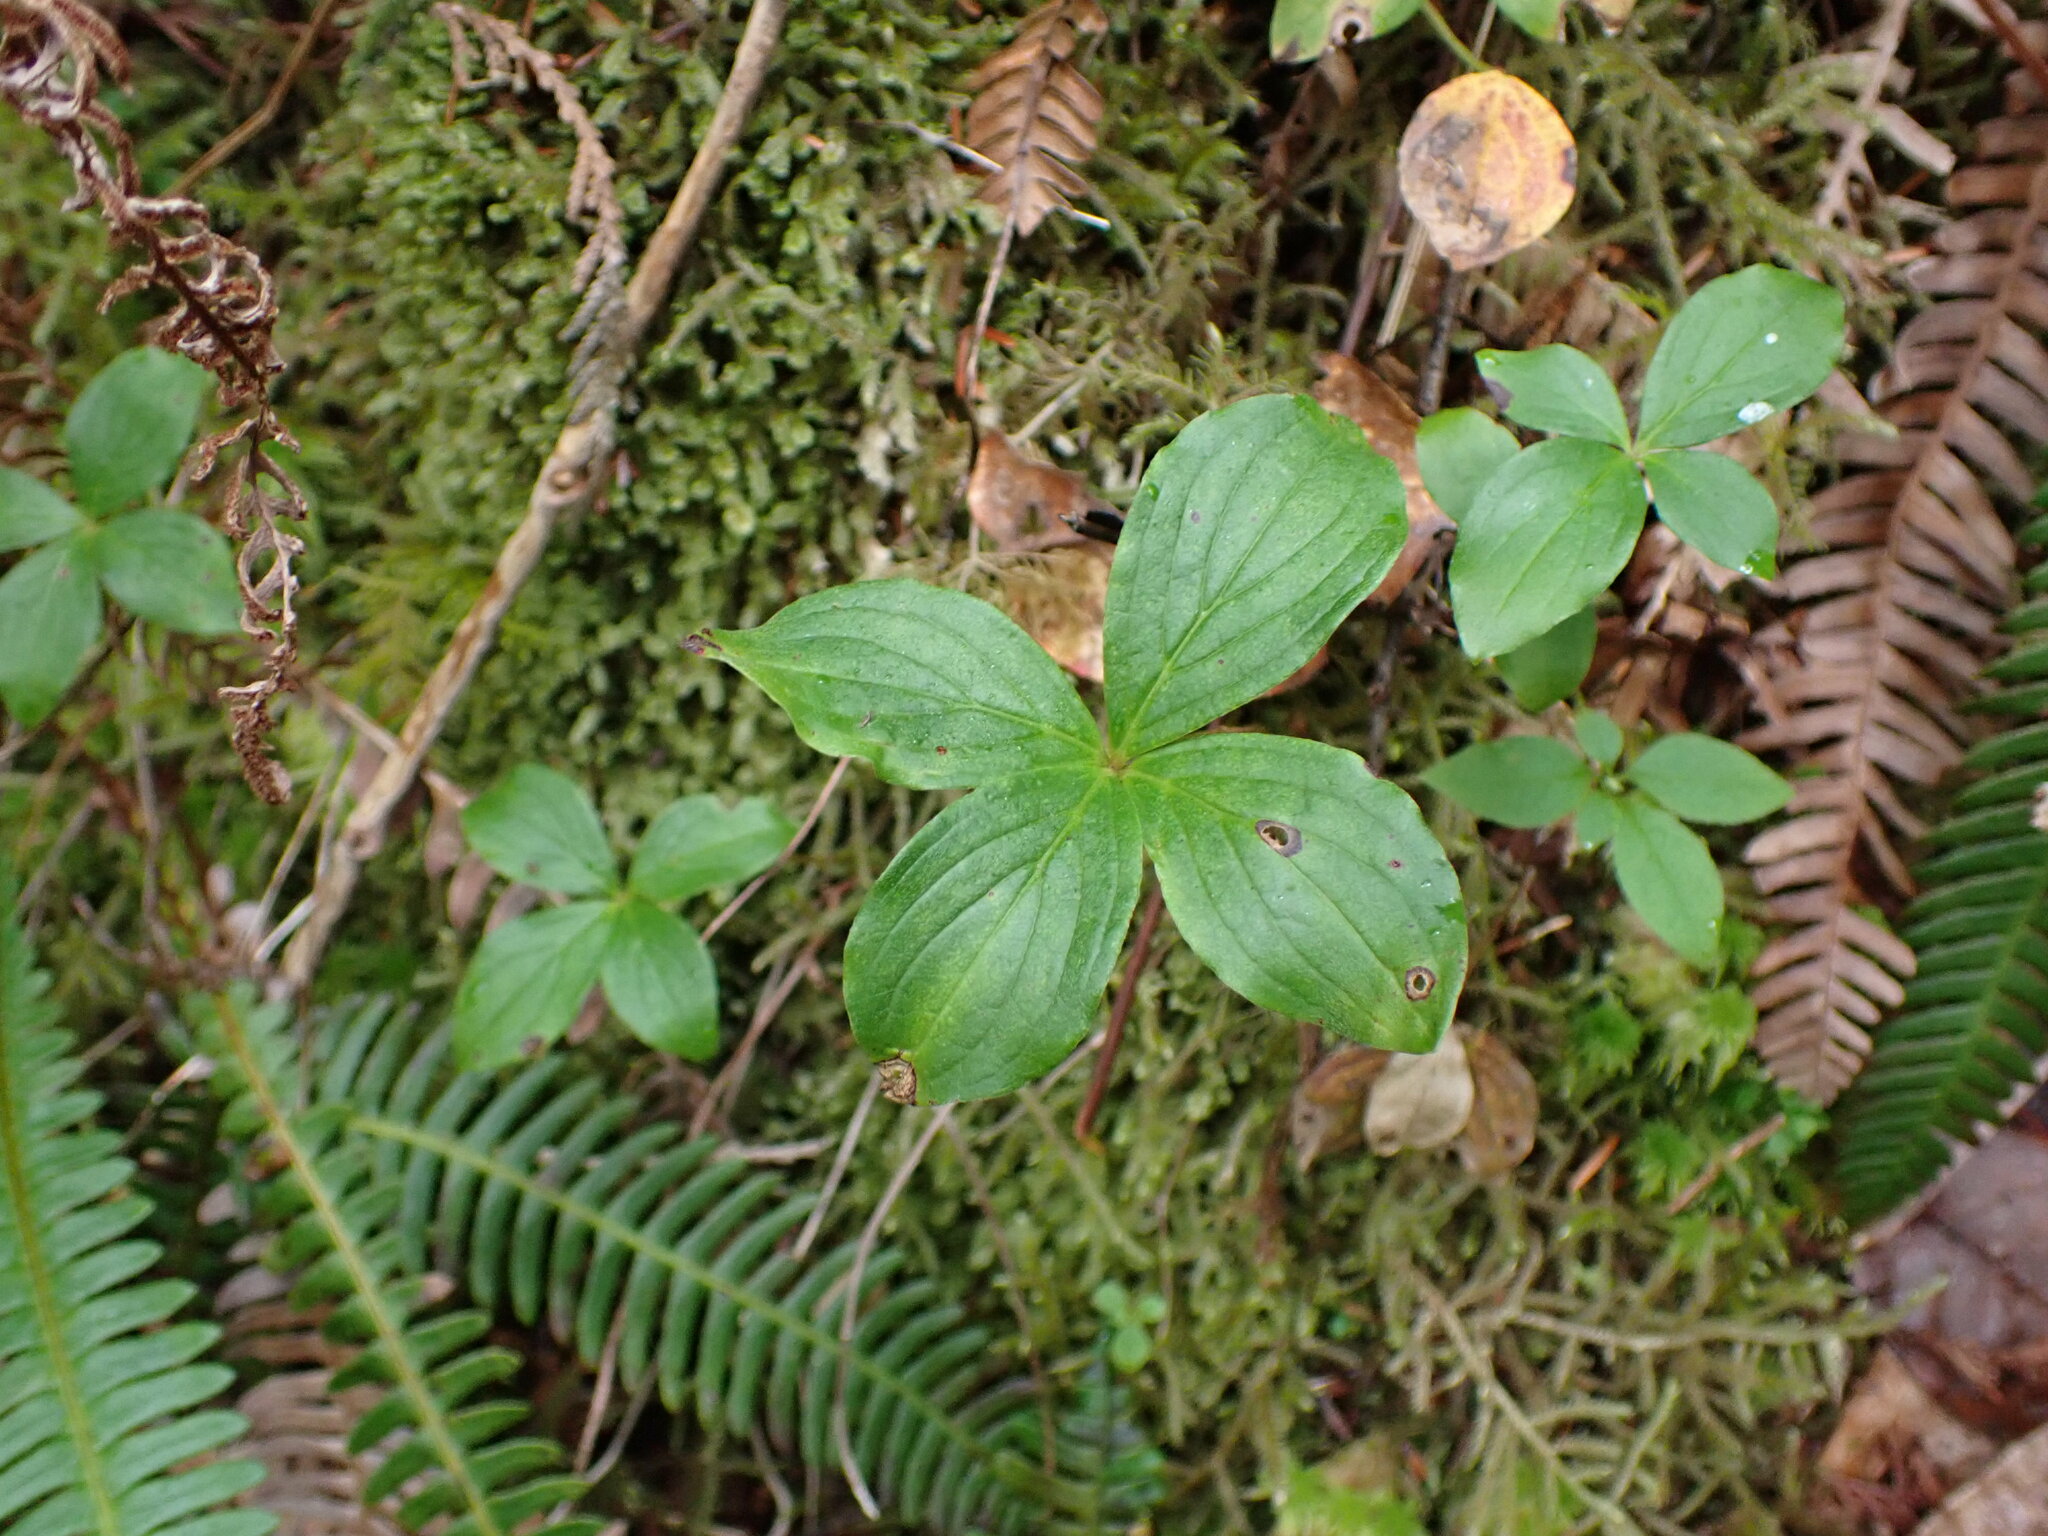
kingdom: Plantae
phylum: Tracheophyta
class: Magnoliopsida
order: Cornales
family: Cornaceae
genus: Cornus
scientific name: Cornus unalaschkensis
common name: Alaska bunchberry
